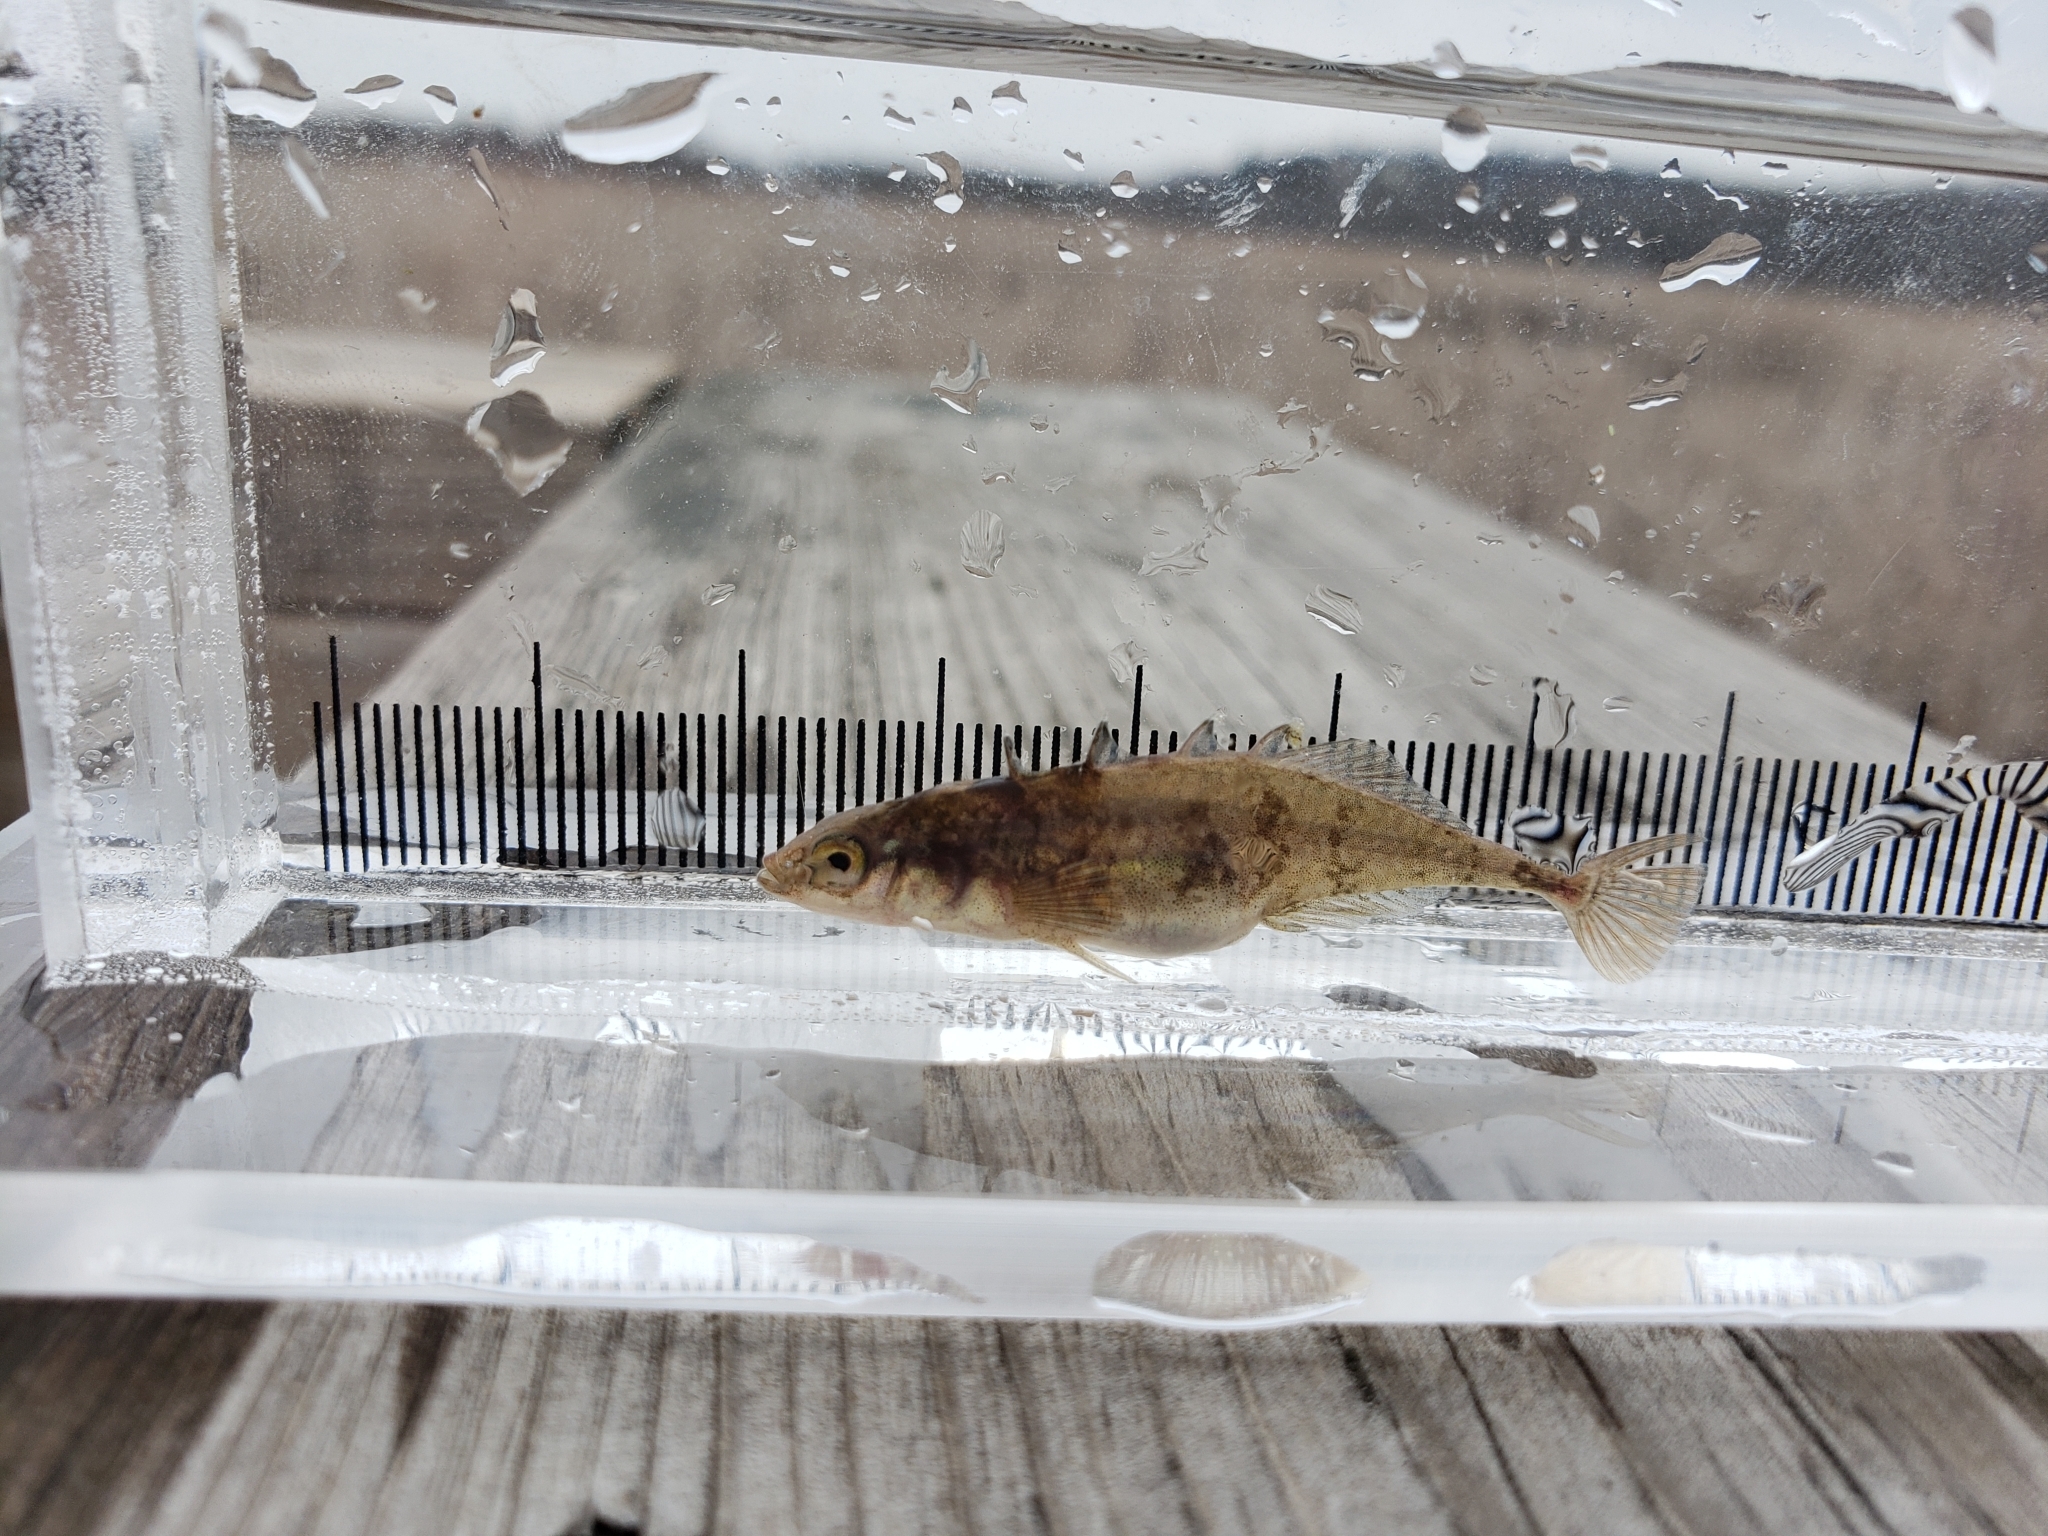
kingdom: Animalia
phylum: Chordata
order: Gasterosteiformes
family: Gasterosteidae
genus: Culaea
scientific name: Culaea inconstans
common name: Brook stickleback
